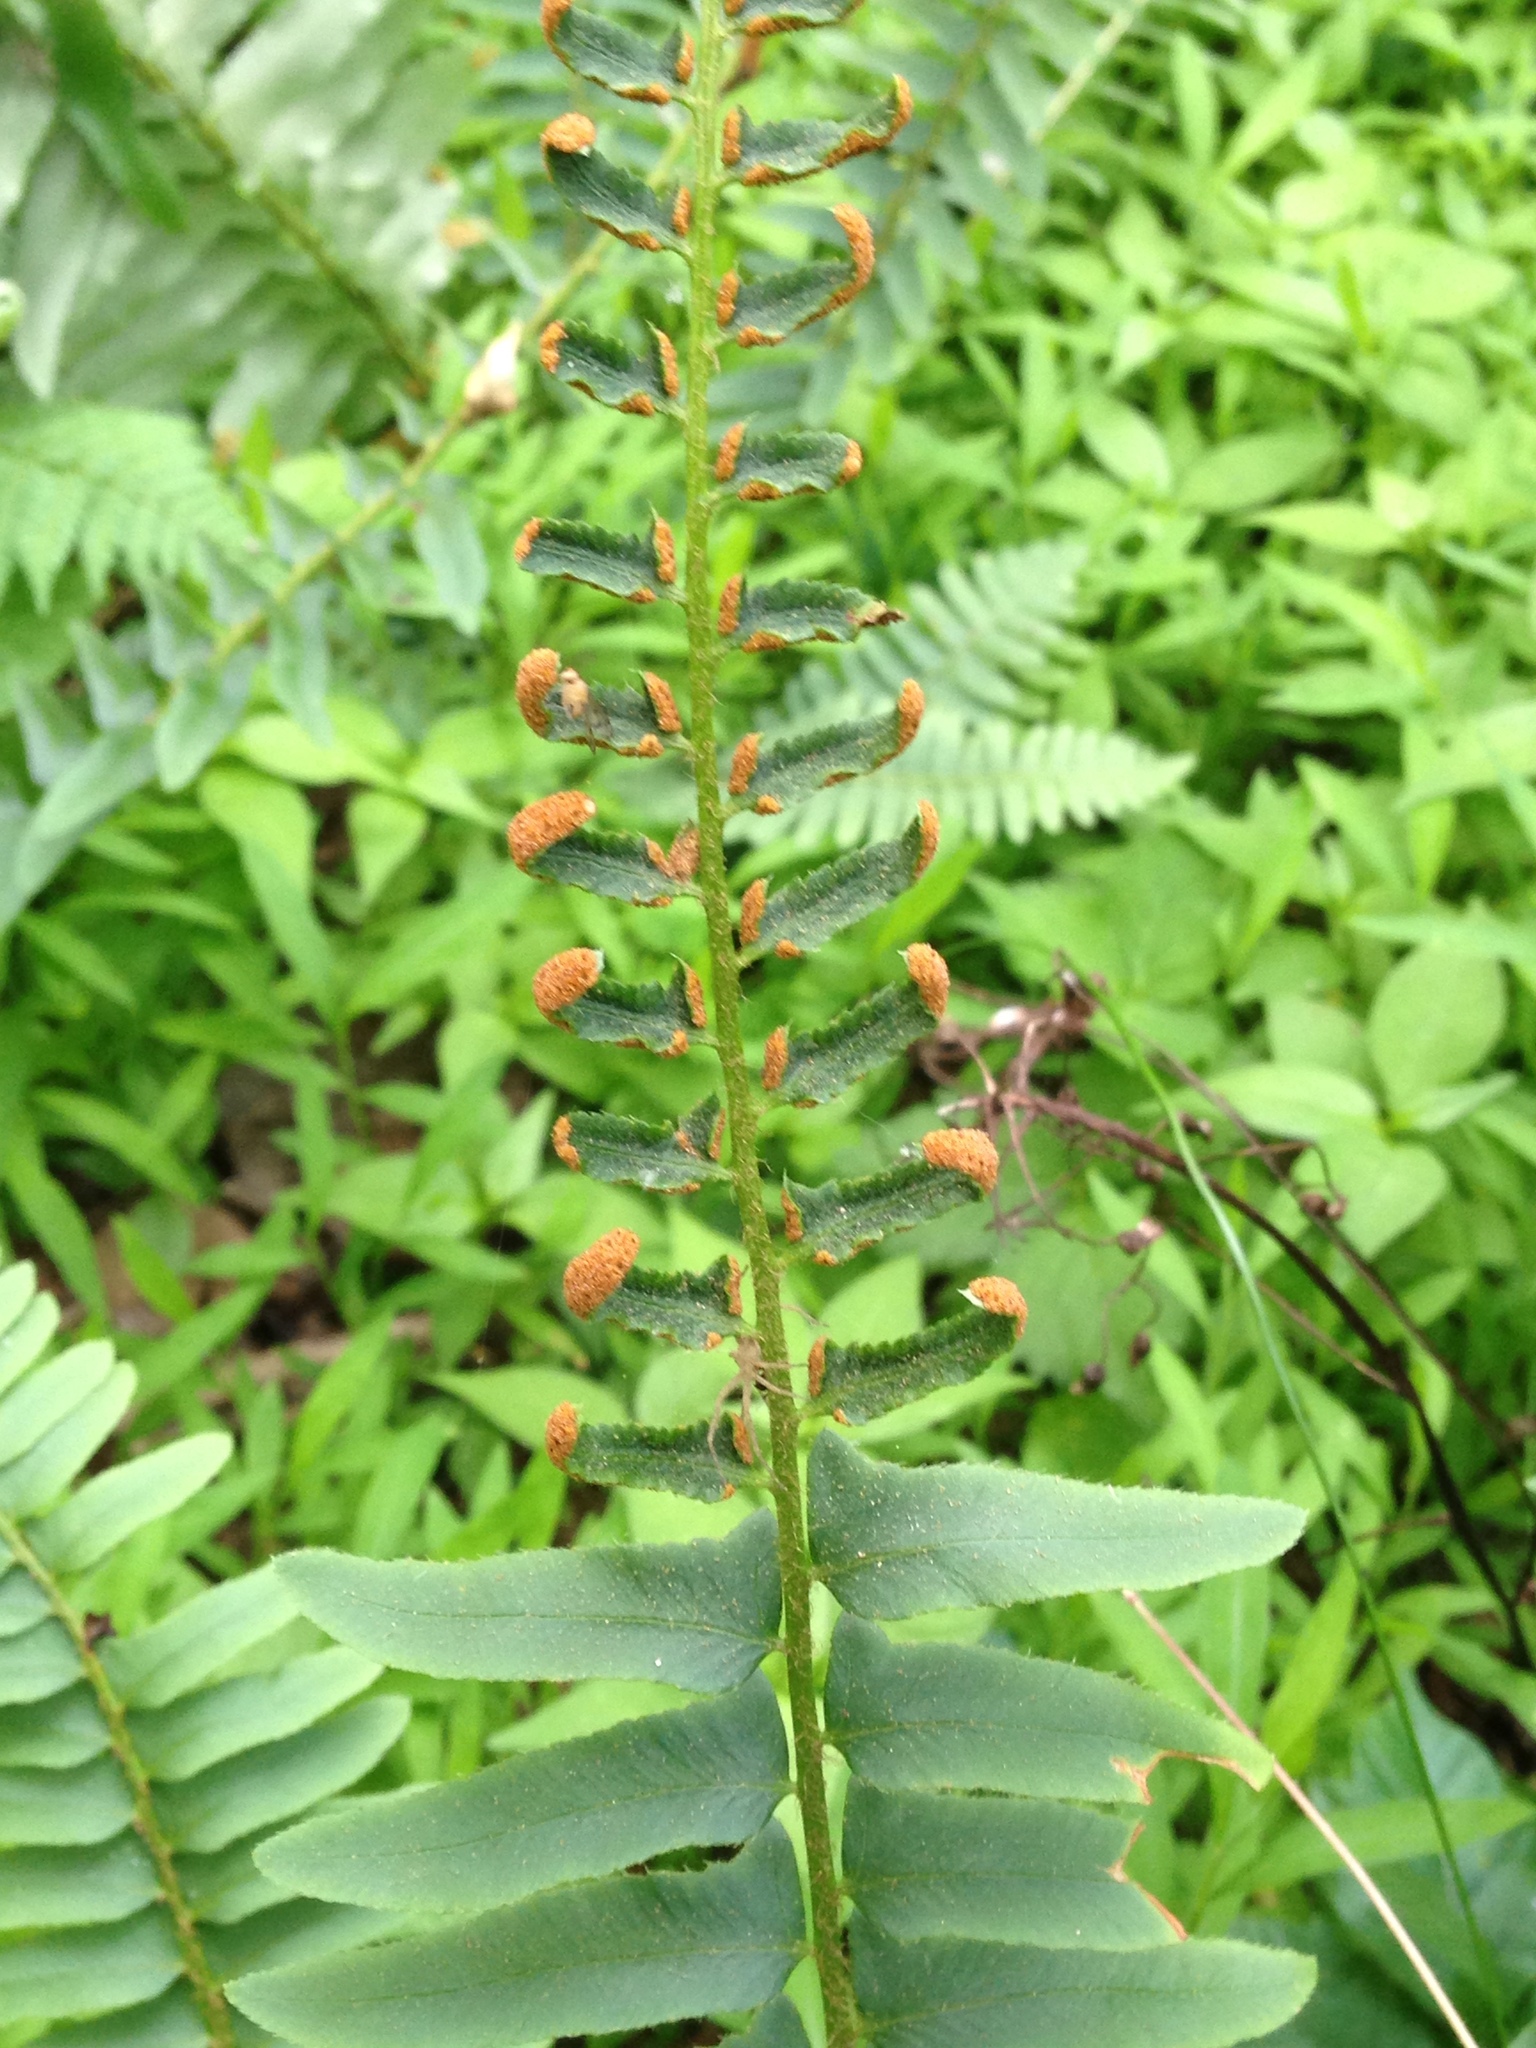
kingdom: Plantae
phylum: Tracheophyta
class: Polypodiopsida
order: Polypodiales
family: Dryopteridaceae
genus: Polystichum
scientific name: Polystichum acrostichoides
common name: Christmas fern
